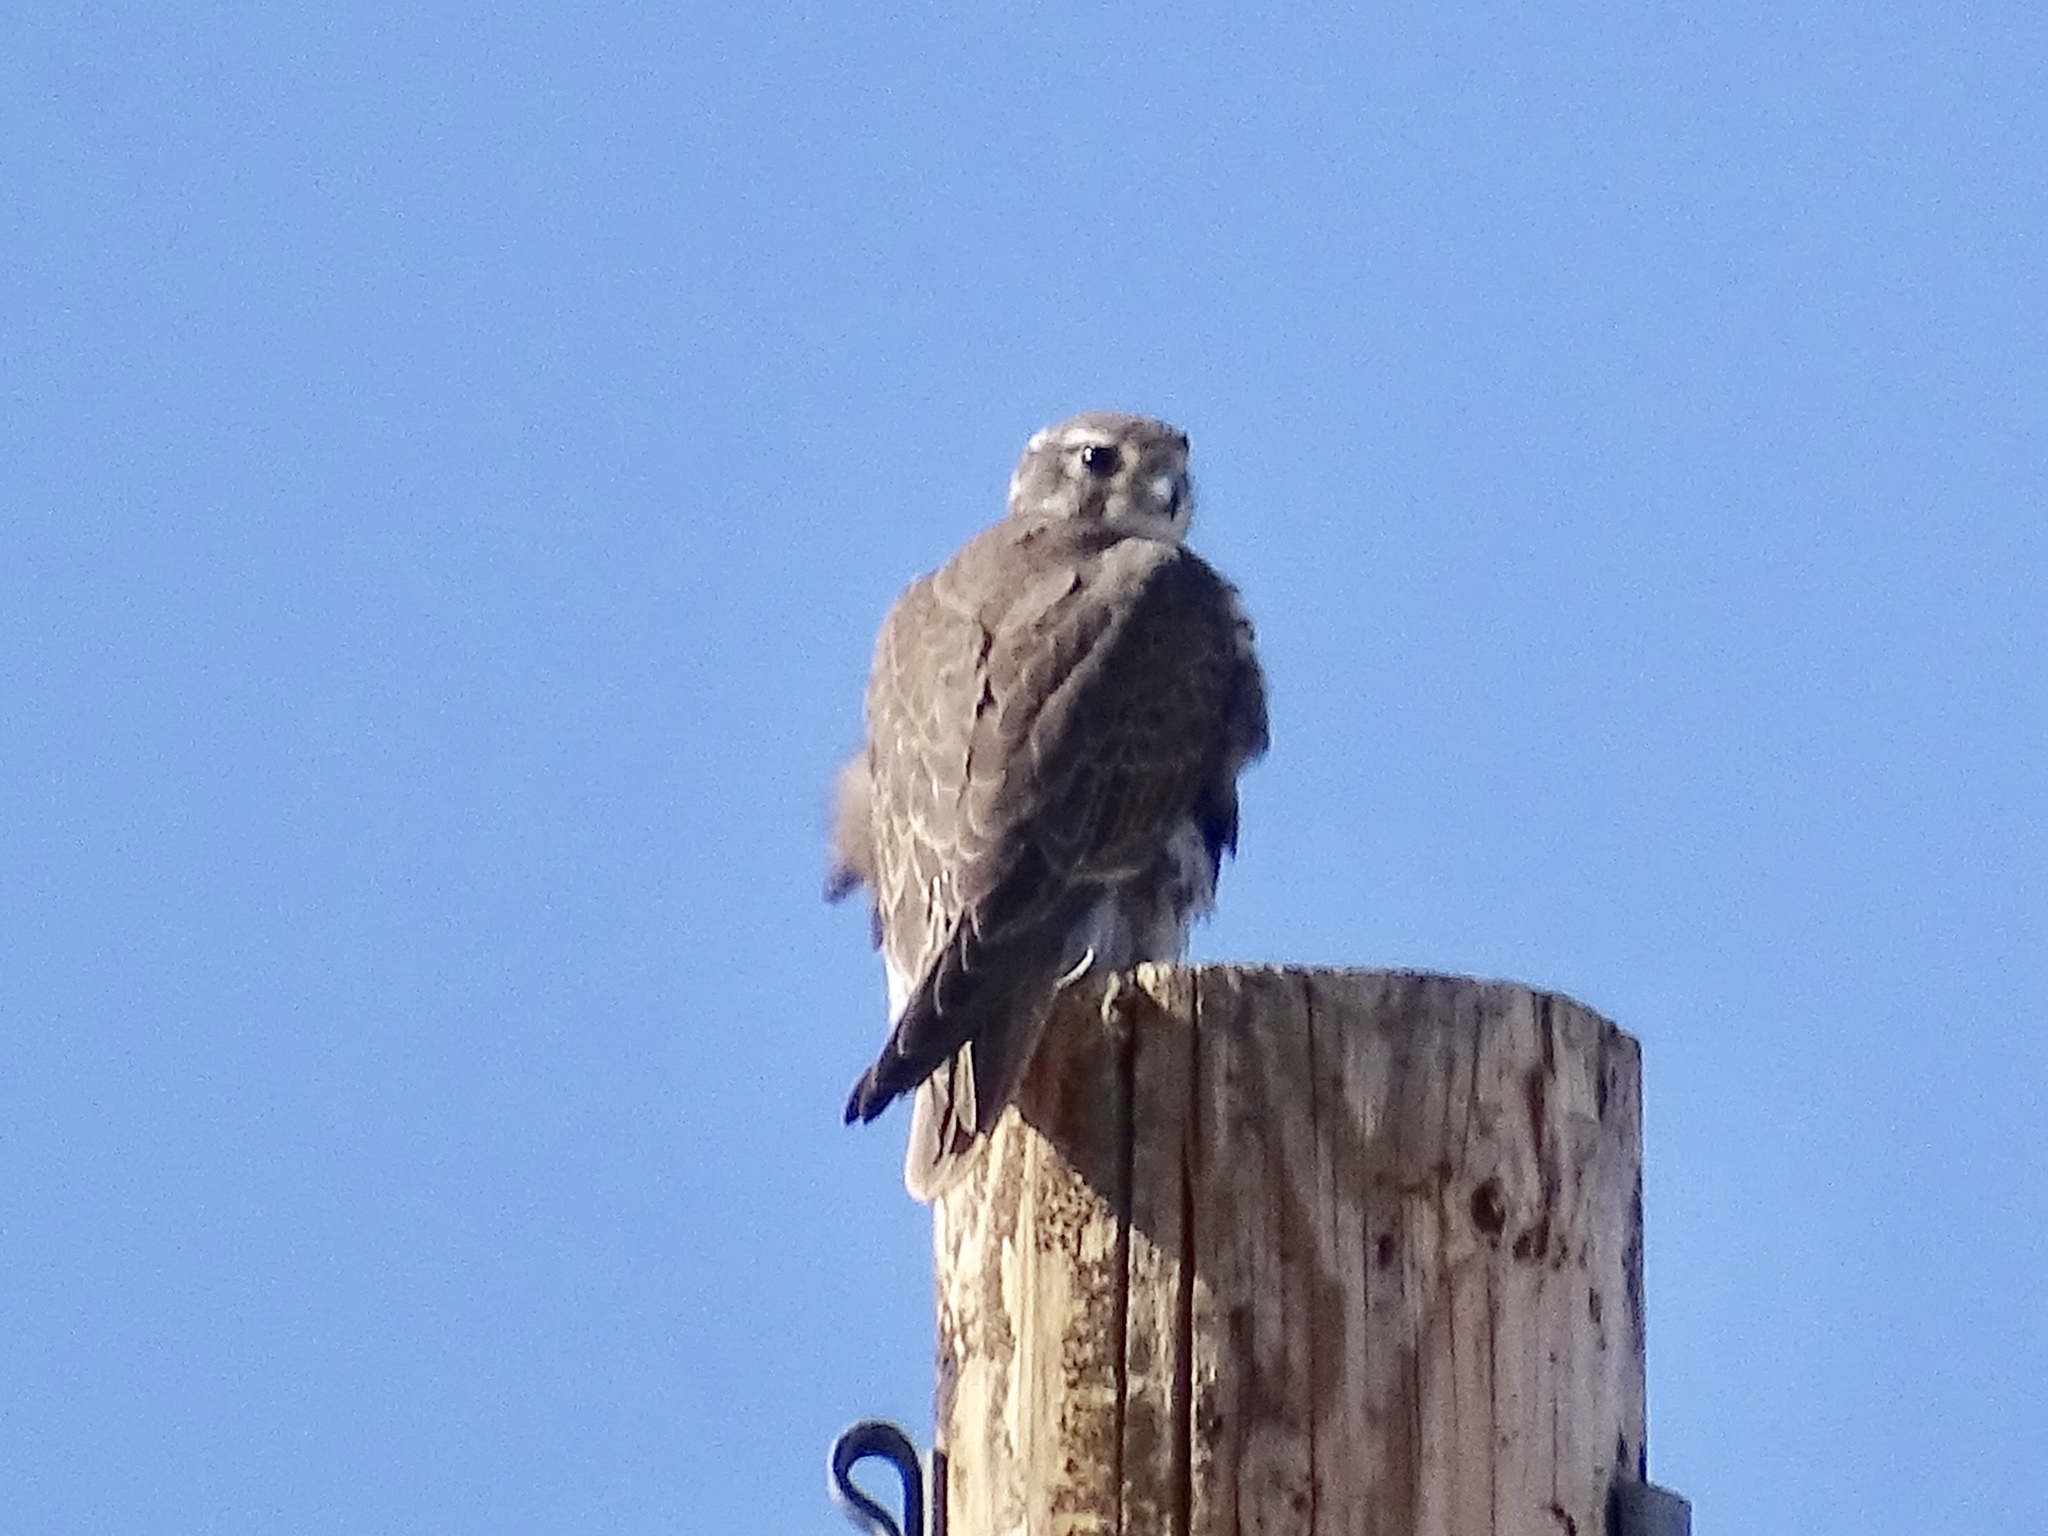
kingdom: Animalia
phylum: Chordata
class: Aves
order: Falconiformes
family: Falconidae
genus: Falco
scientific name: Falco mexicanus
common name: Prairie falcon
